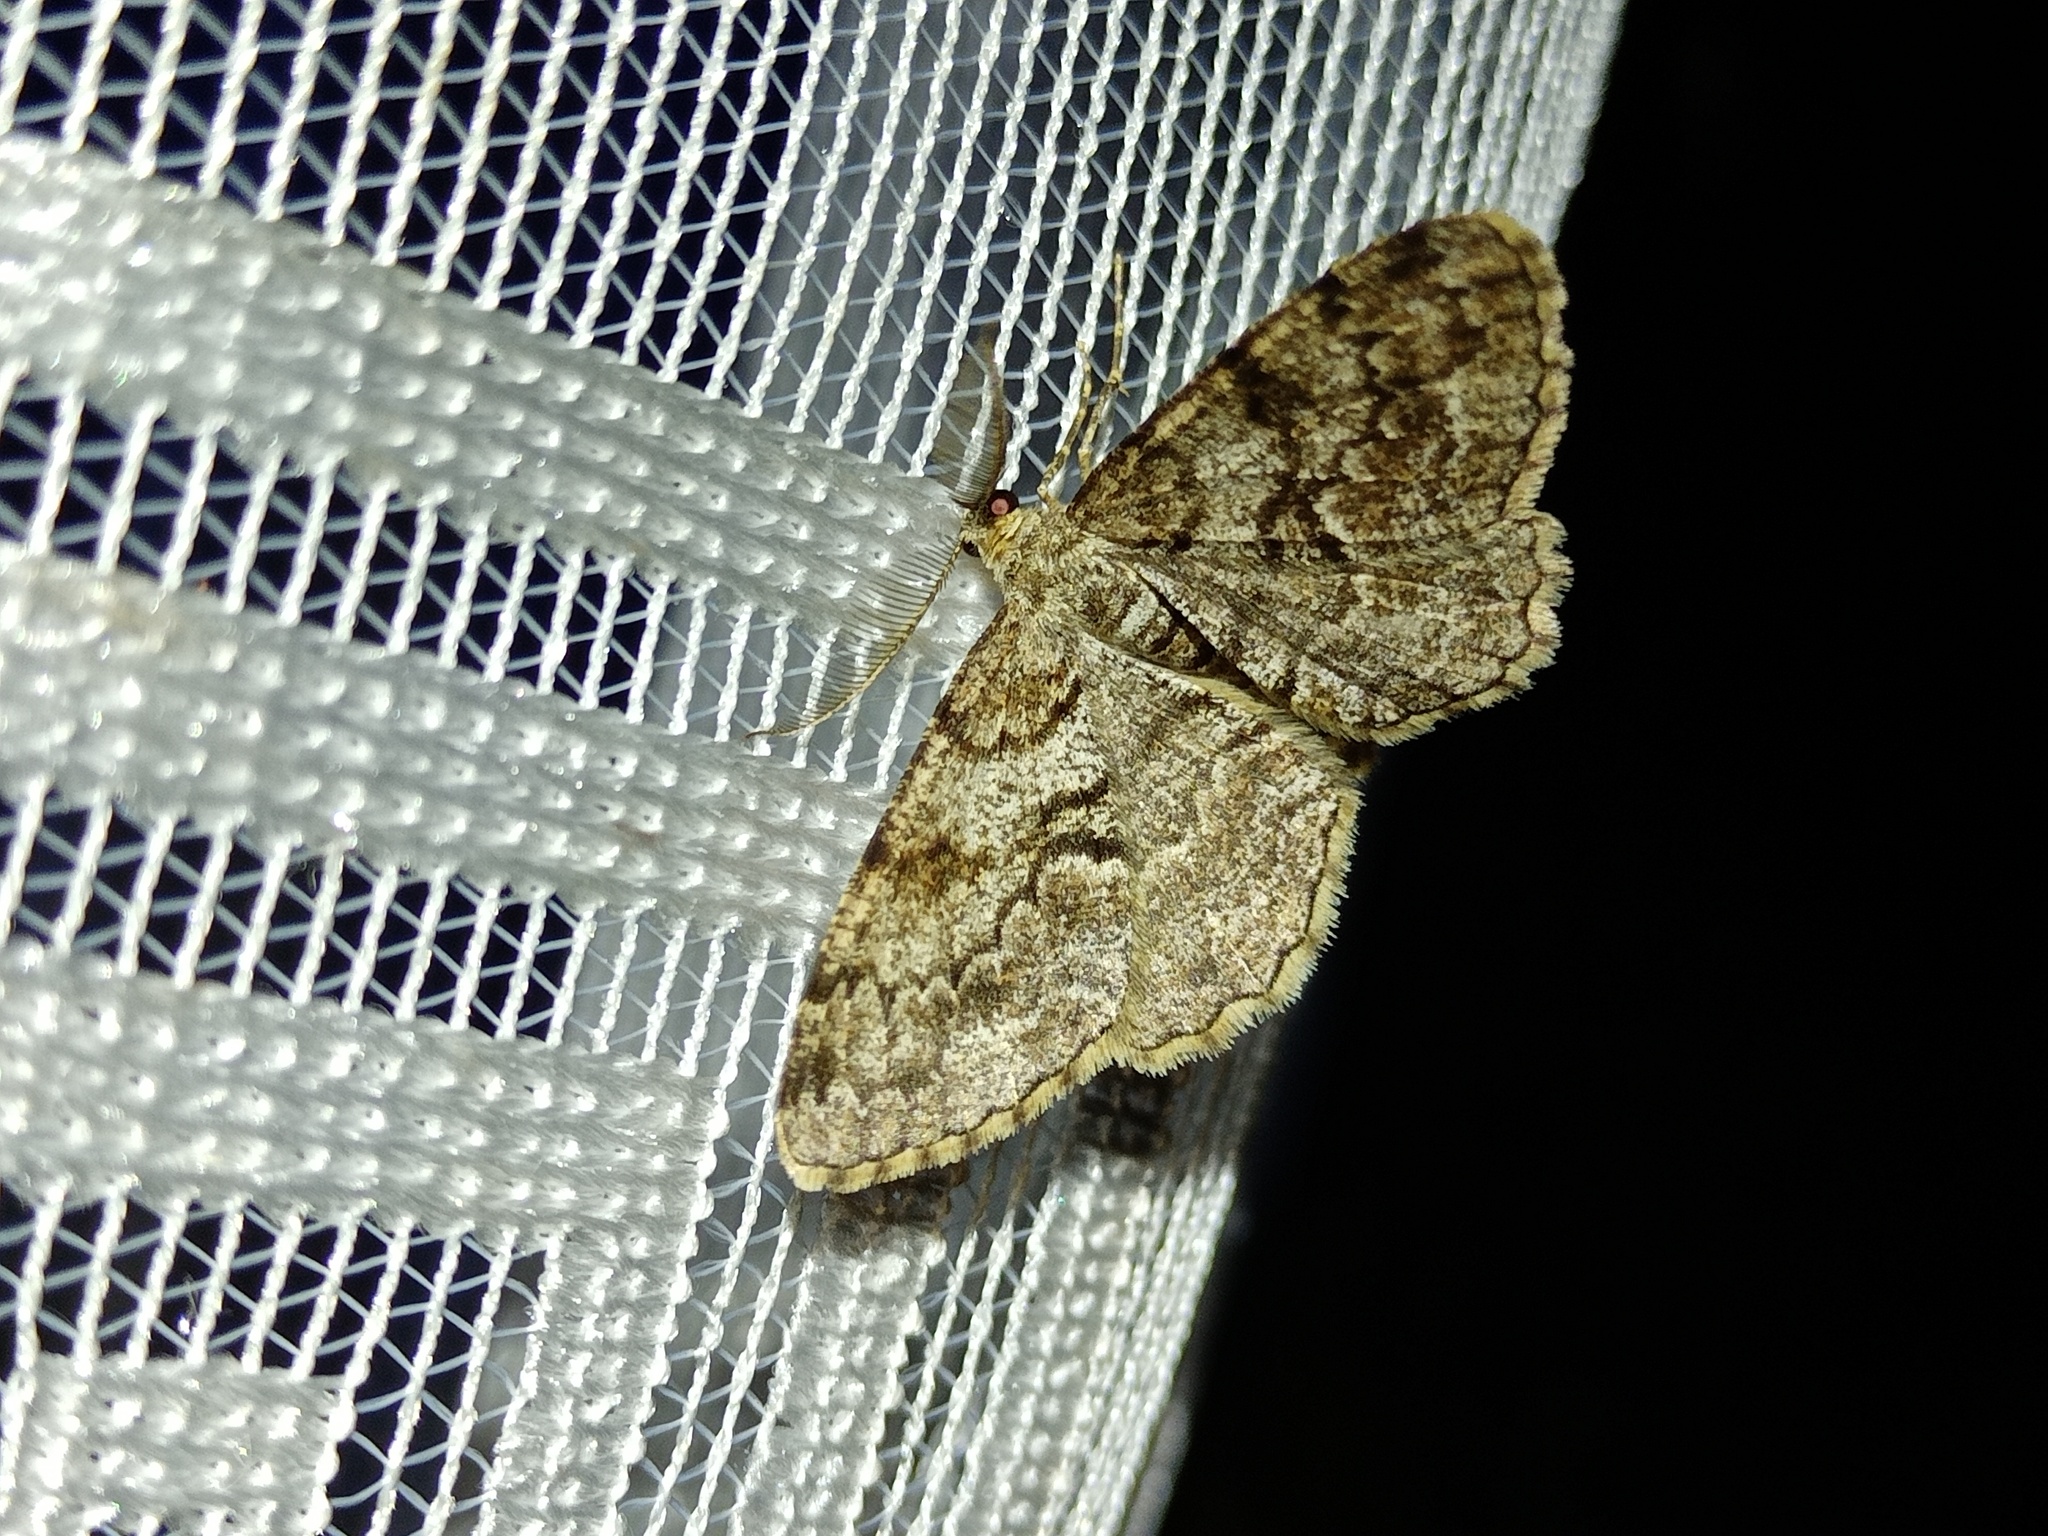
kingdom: Animalia
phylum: Arthropoda
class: Insecta
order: Lepidoptera
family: Geometridae
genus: Peribatodes
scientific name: Peribatodes secundaria
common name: Feathered beauty
